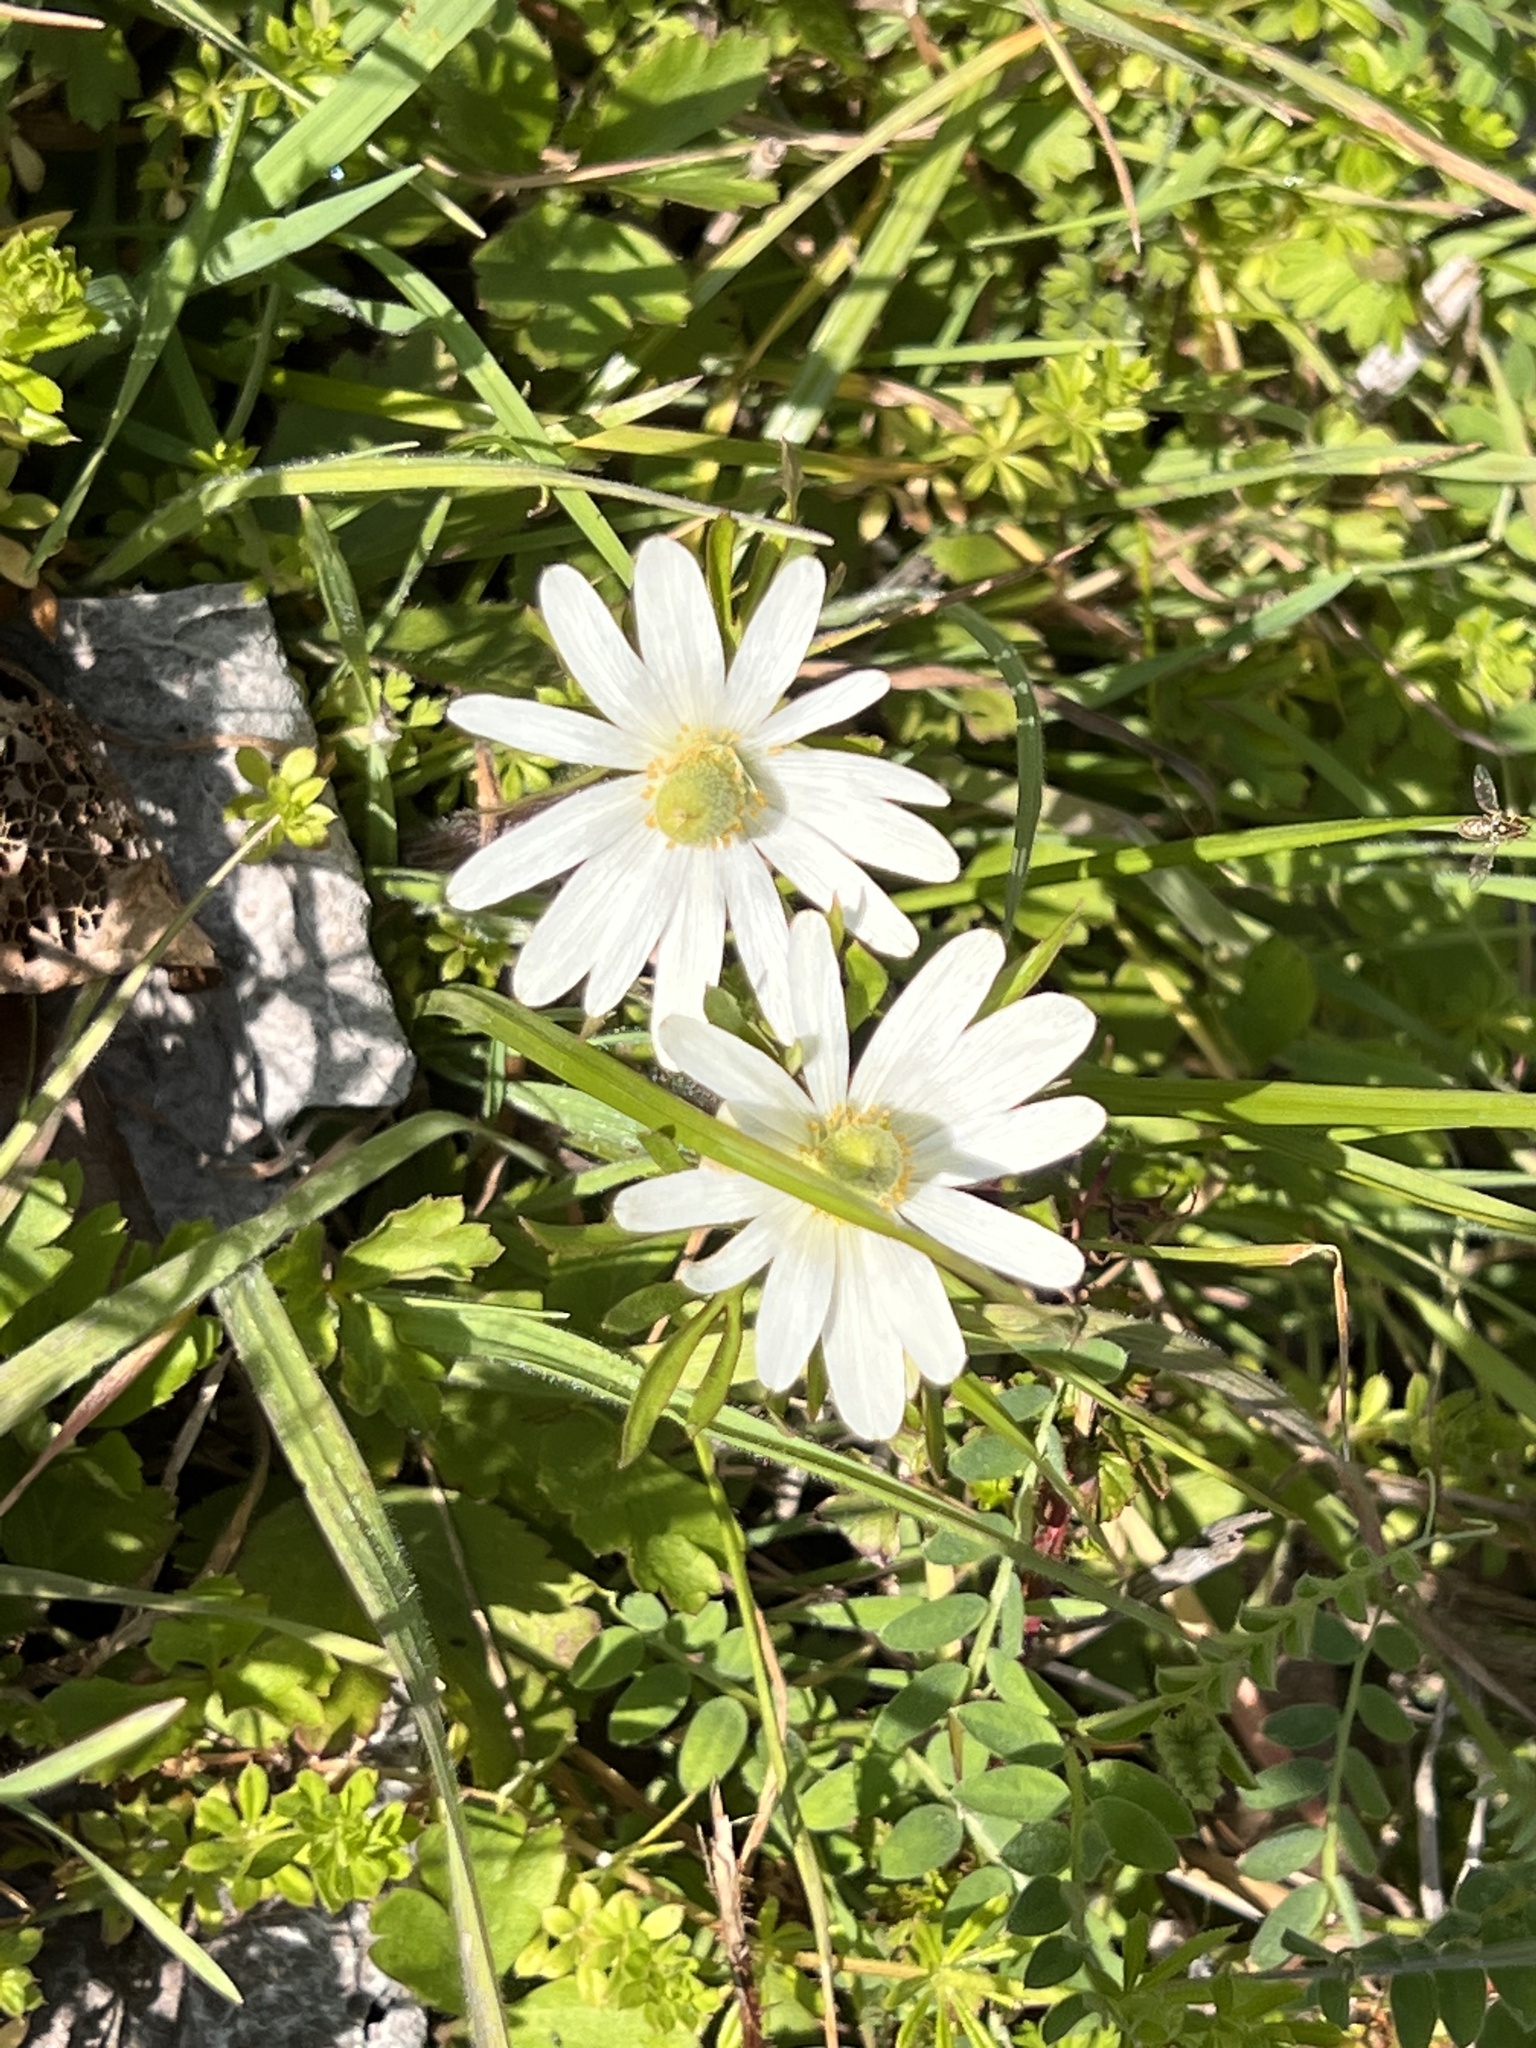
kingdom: Plantae
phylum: Tracheophyta
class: Magnoliopsida
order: Ranunculales
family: Ranunculaceae
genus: Anemone
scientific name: Anemone berlandieri
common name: Ten-petal anemone
